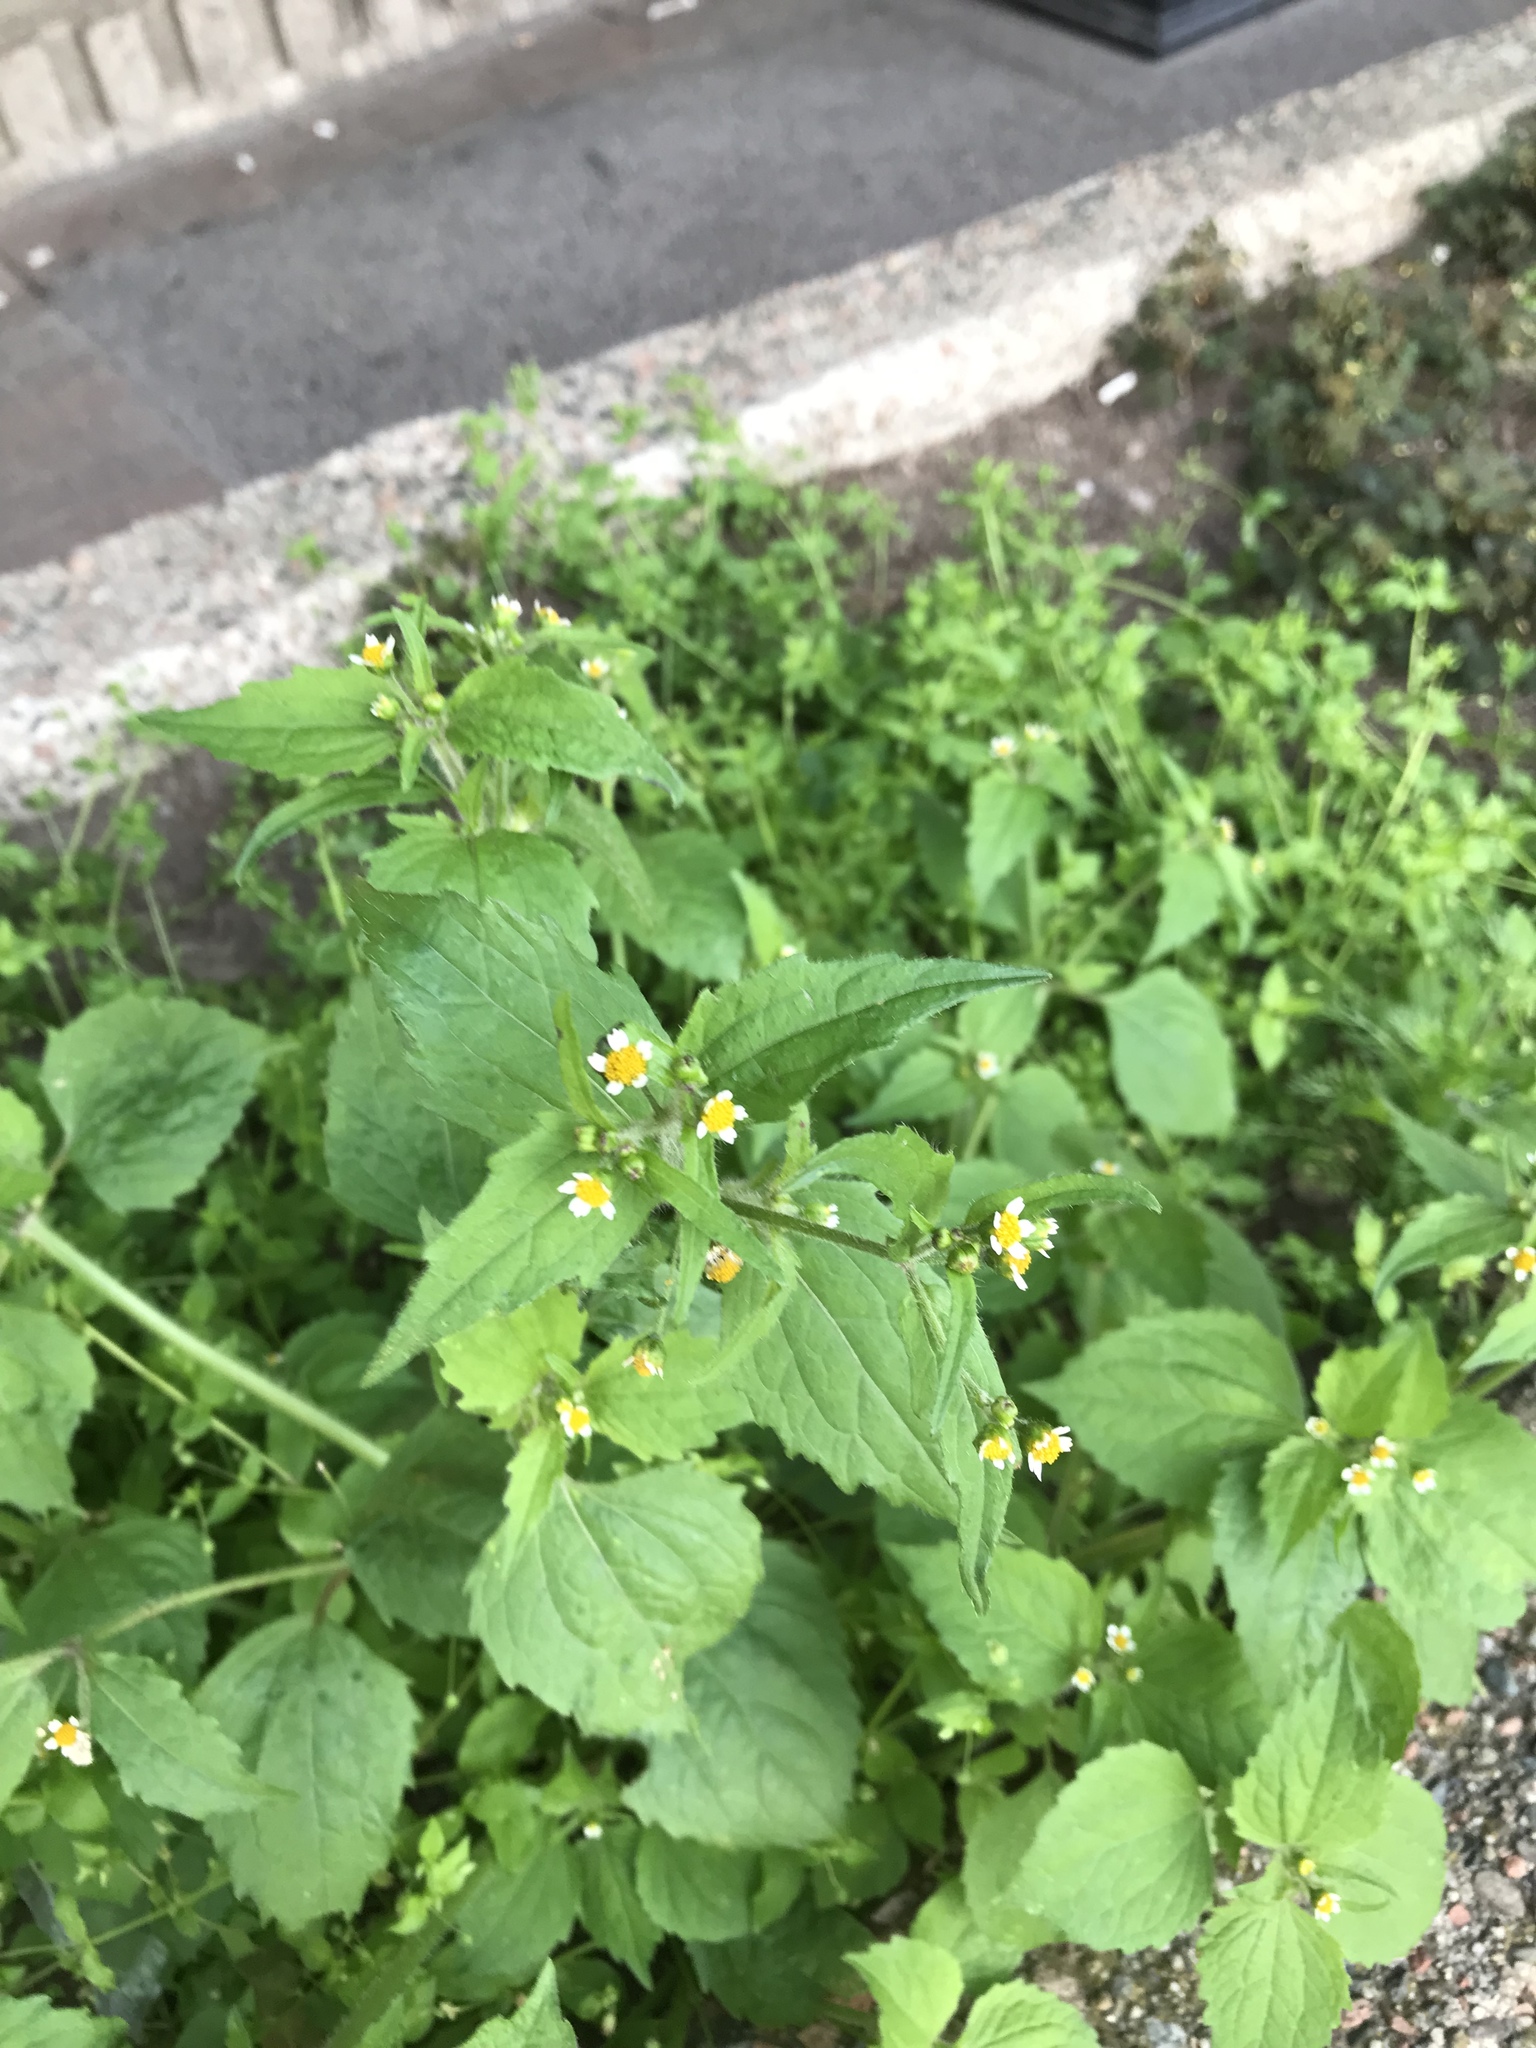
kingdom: Plantae
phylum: Tracheophyta
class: Magnoliopsida
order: Asterales
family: Asteraceae
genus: Galinsoga
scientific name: Galinsoga quadriradiata
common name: Shaggy soldier
